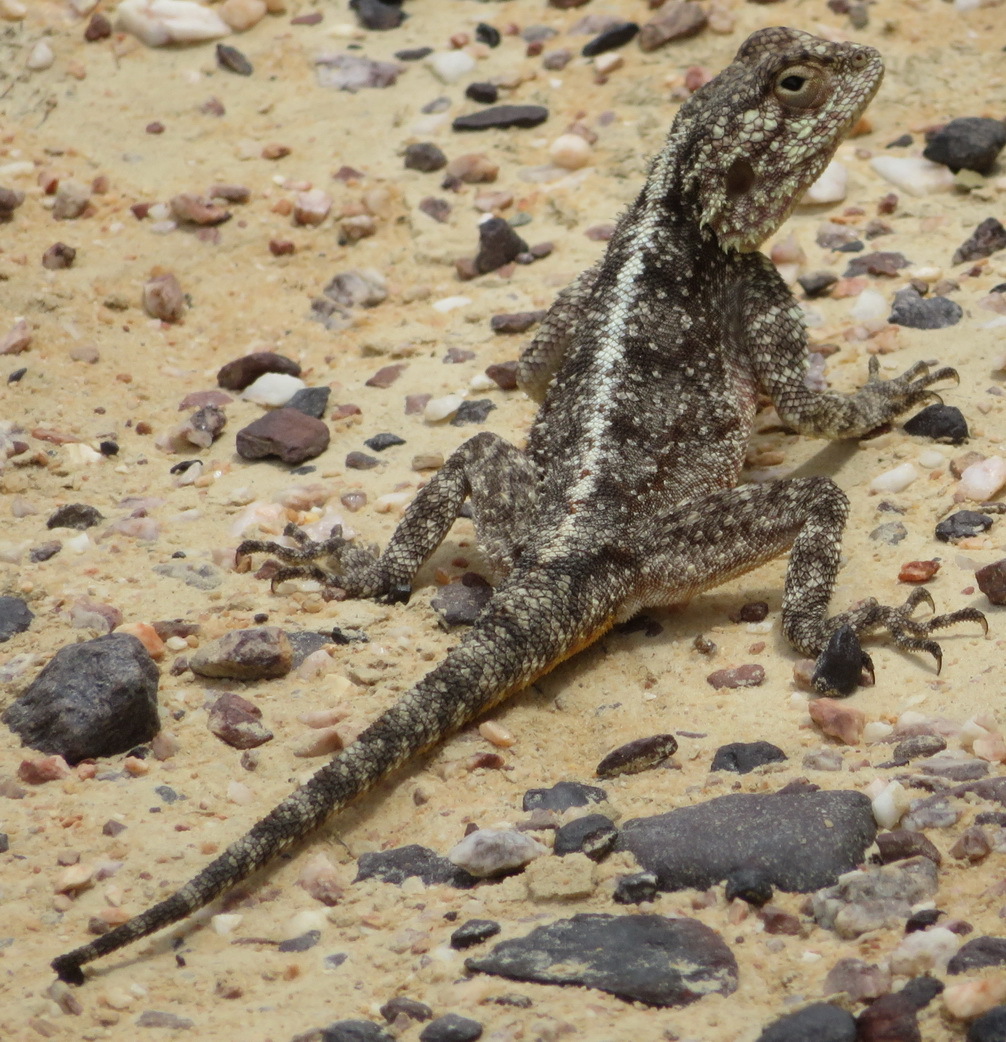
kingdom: Animalia
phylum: Chordata
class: Squamata
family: Agamidae
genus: Agama
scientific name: Agama atra
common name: Southern african rock agama
